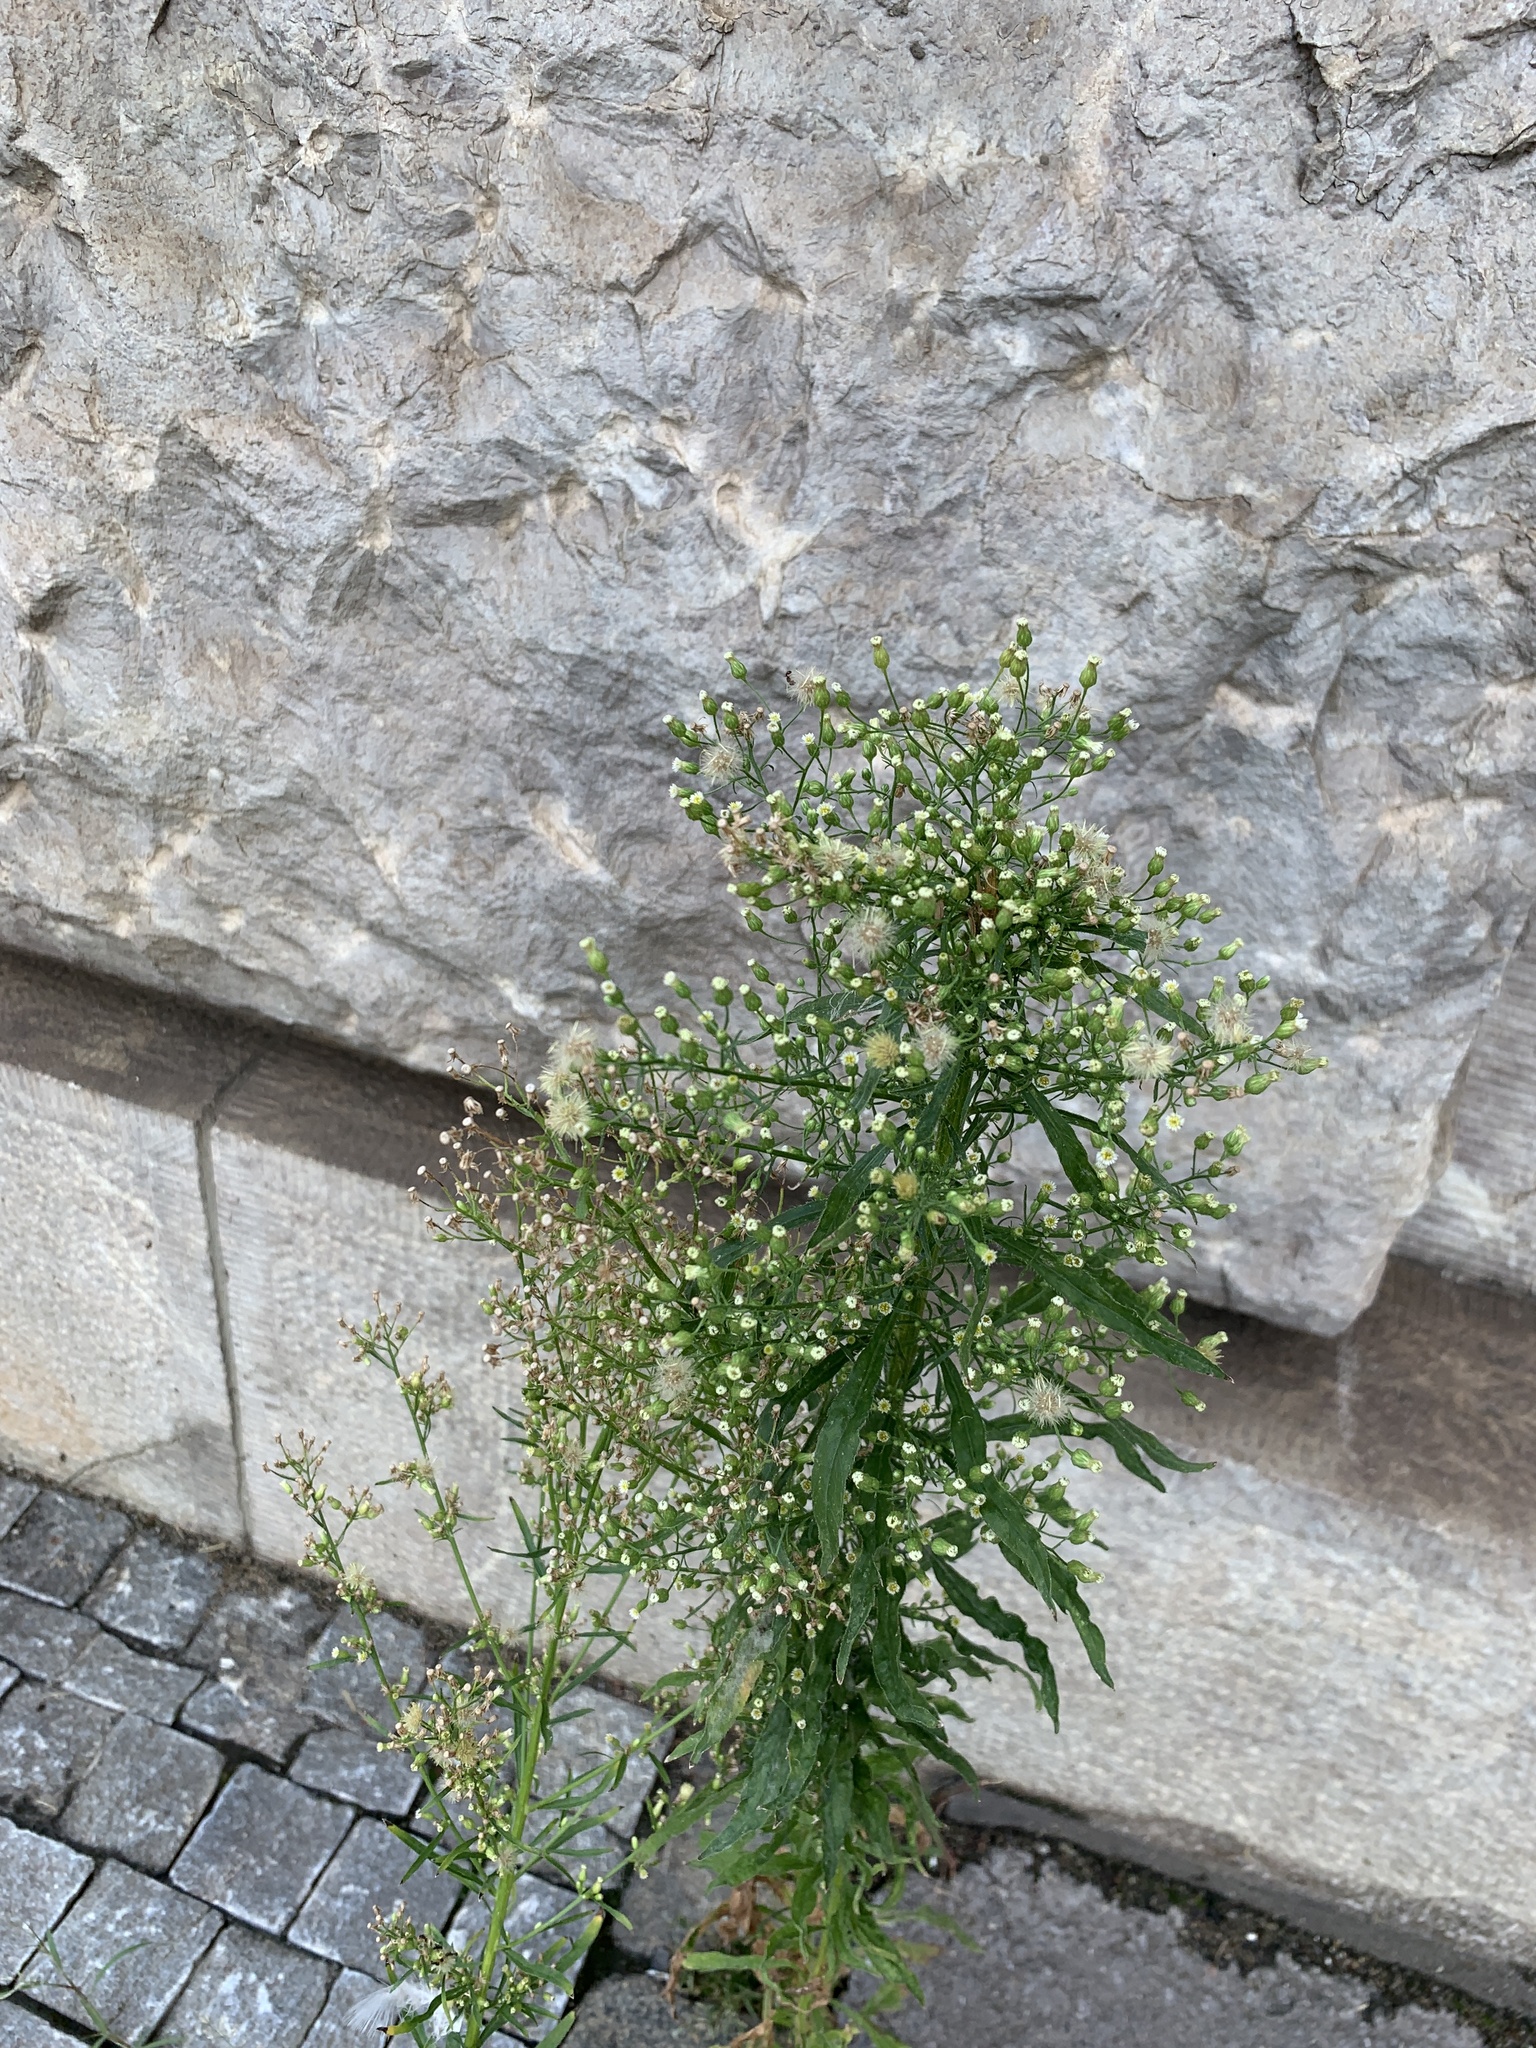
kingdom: Plantae
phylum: Tracheophyta
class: Magnoliopsida
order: Asterales
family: Asteraceae
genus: Erigeron
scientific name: Erigeron canadensis
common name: Canadian fleabane
